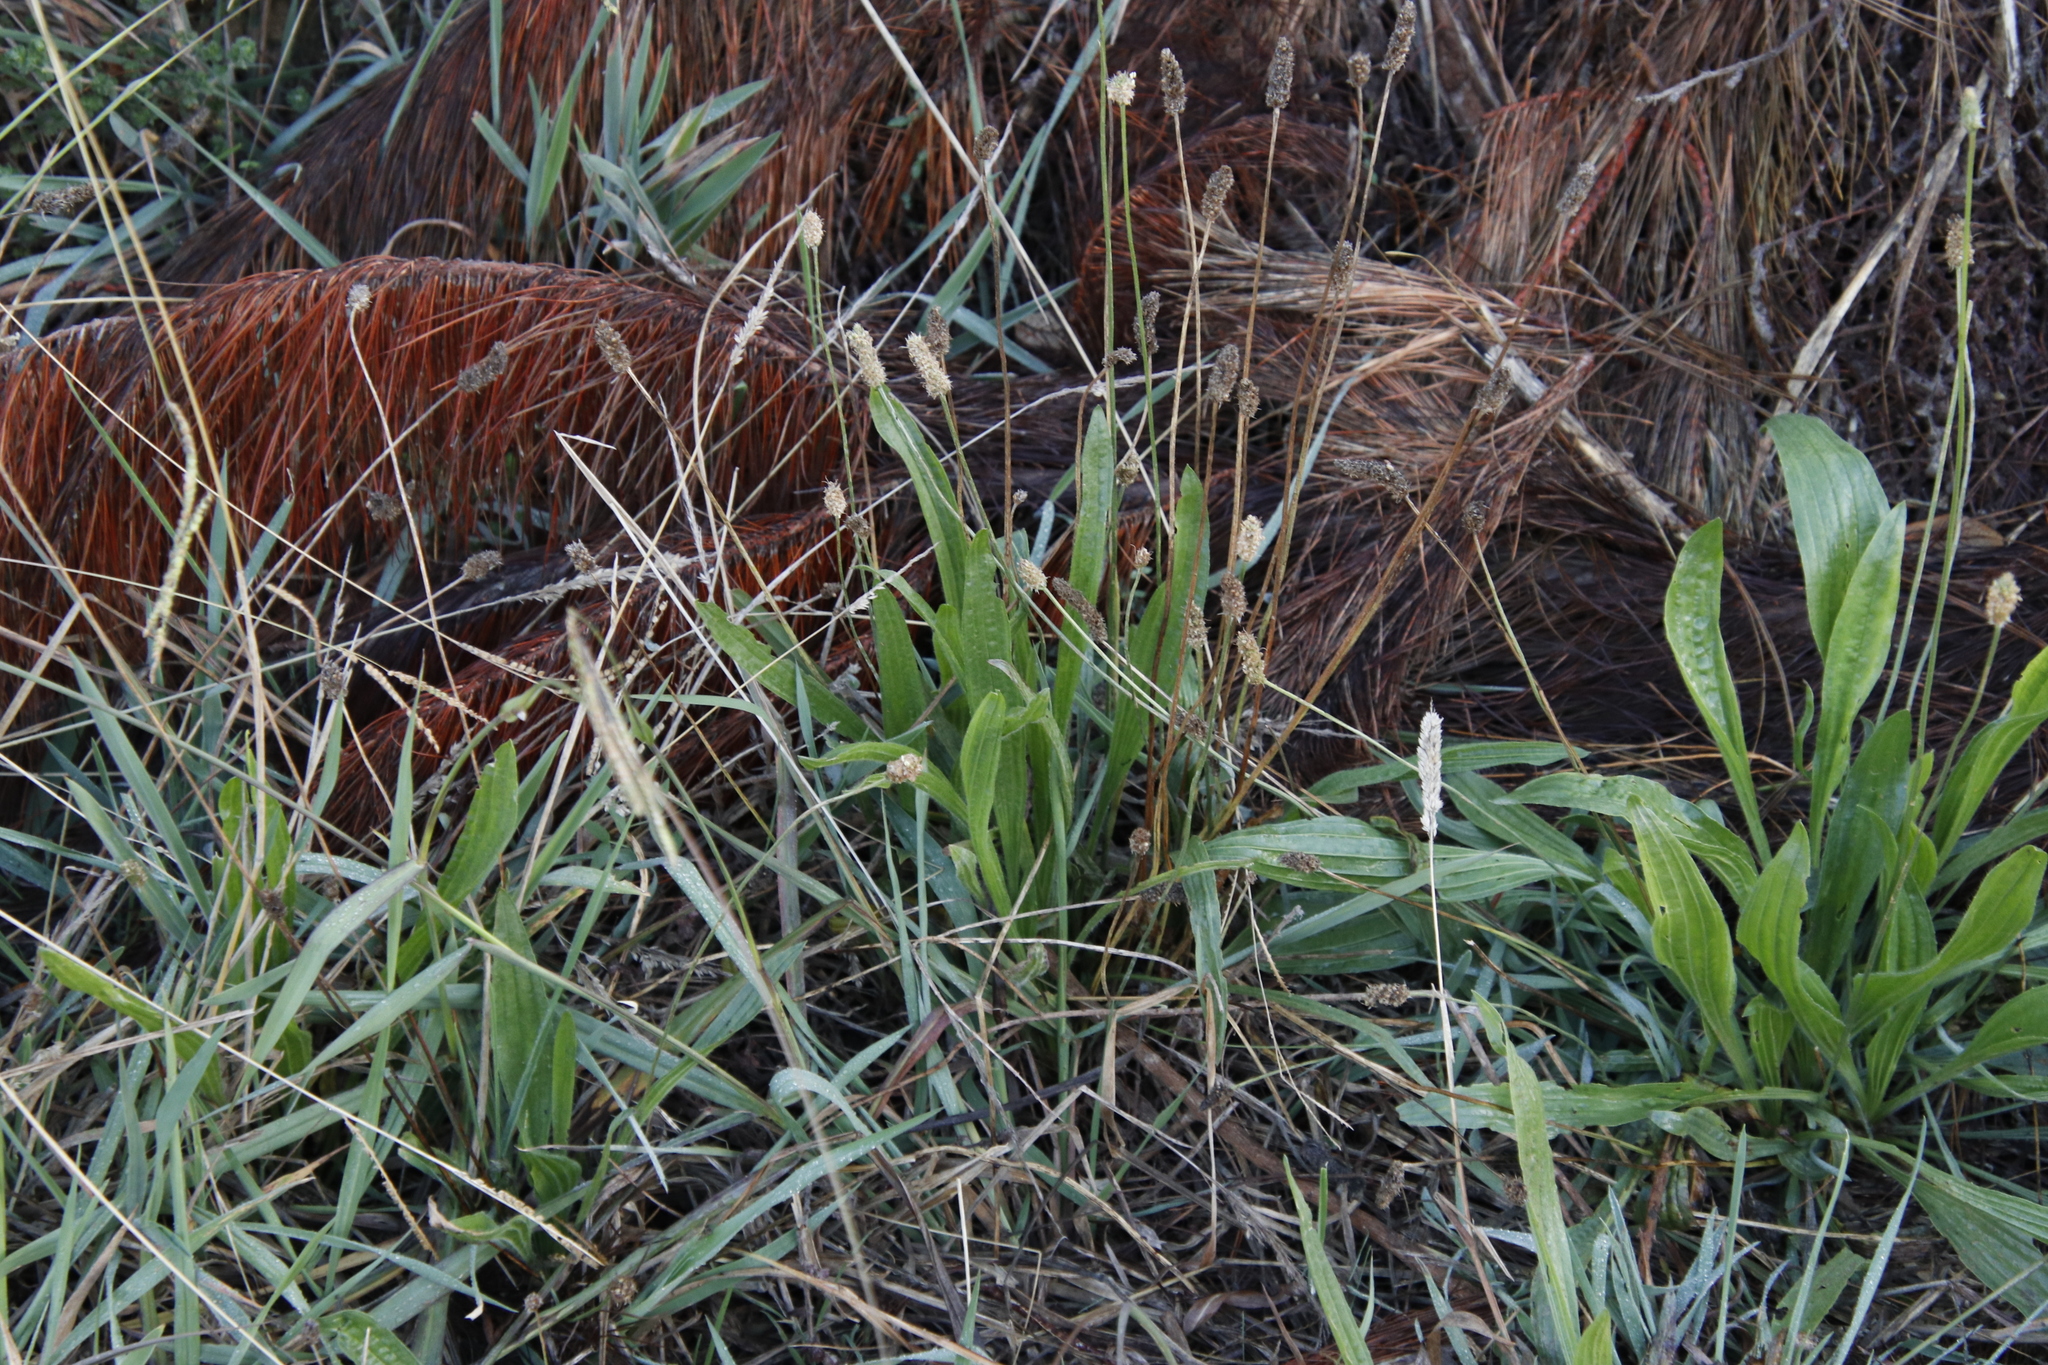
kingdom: Plantae
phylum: Tracheophyta
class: Magnoliopsida
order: Lamiales
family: Plantaginaceae
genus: Plantago
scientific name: Plantago lanceolata
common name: Ribwort plantain
